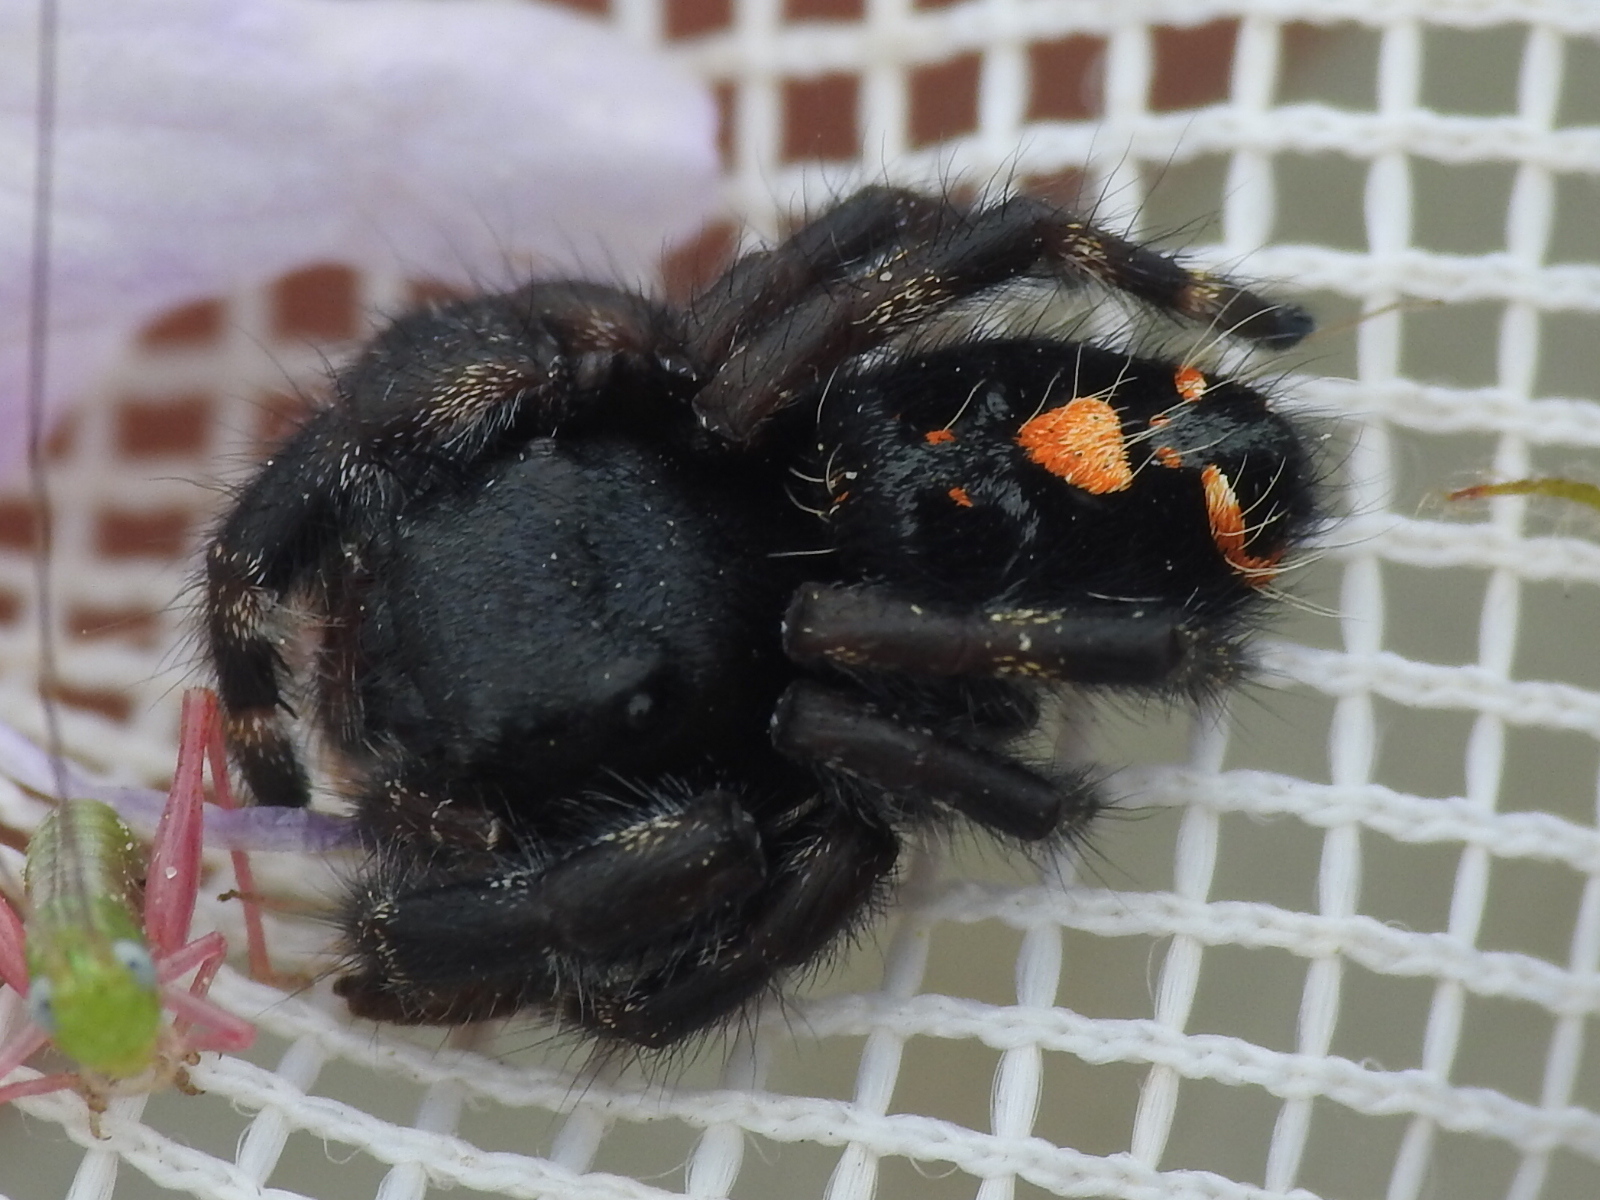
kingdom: Animalia
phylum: Arthropoda
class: Arachnida
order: Araneae
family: Salticidae
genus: Phidippus
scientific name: Phidippus audax
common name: Bold jumper
